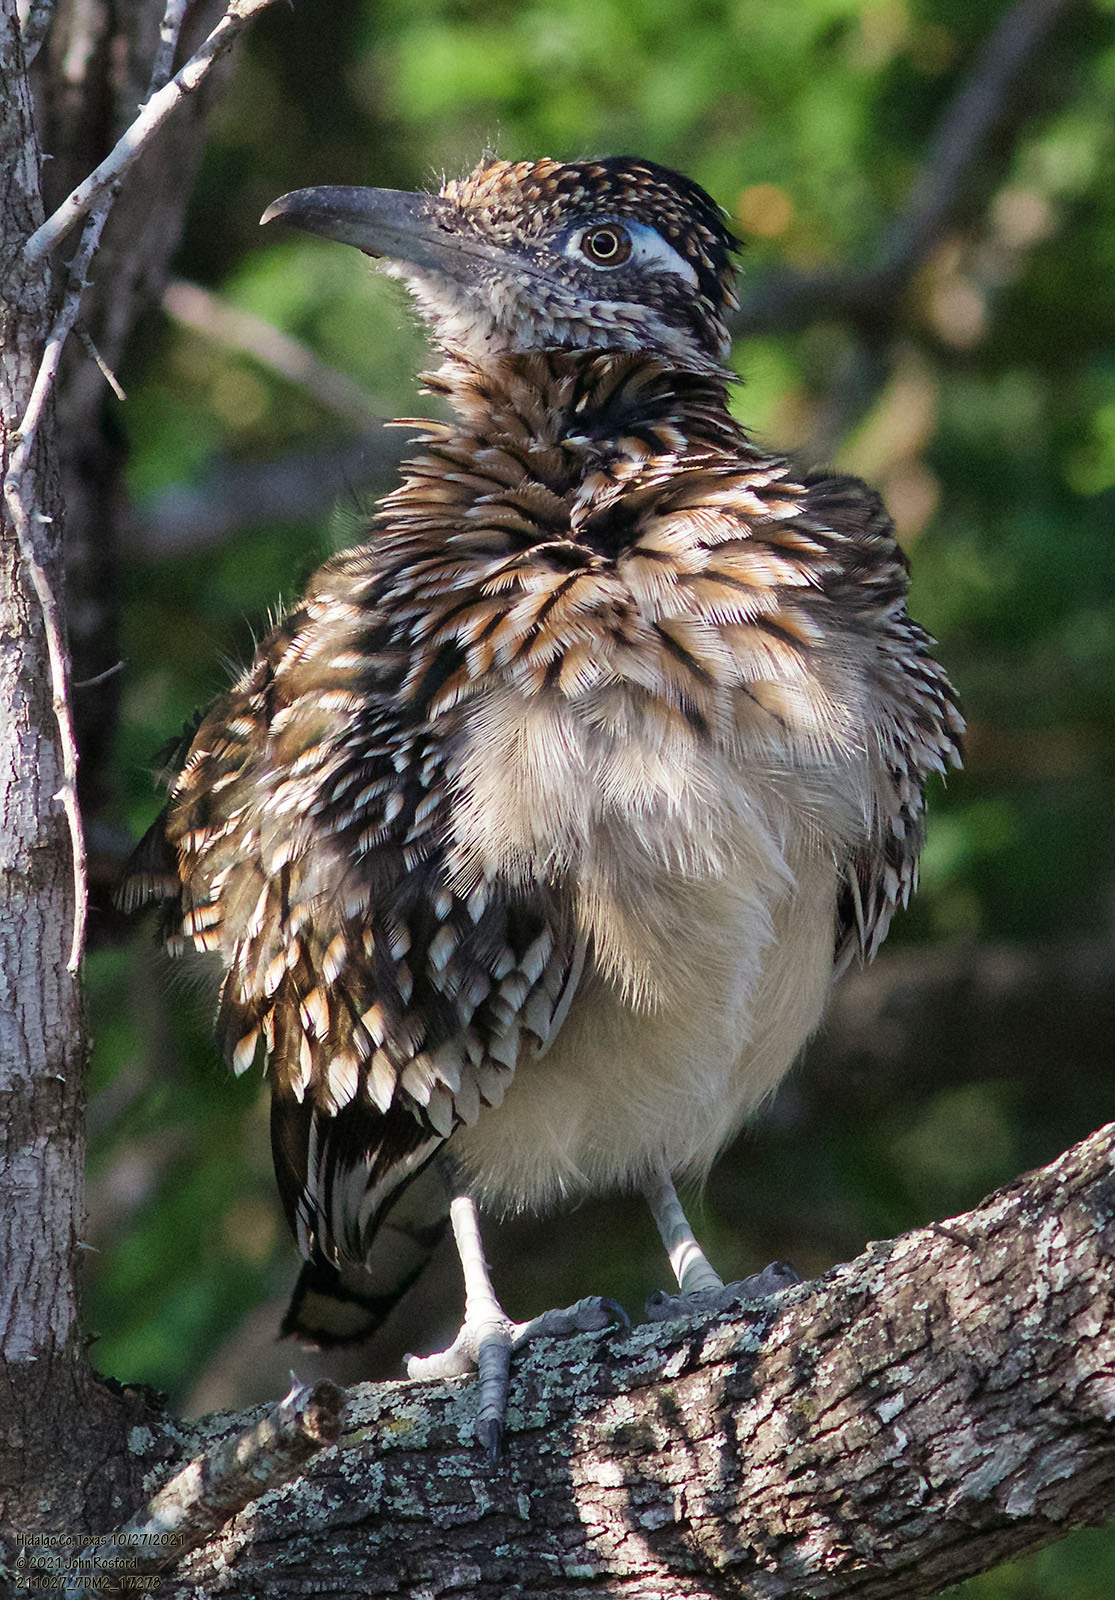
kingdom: Animalia
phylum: Chordata
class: Aves
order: Cuculiformes
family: Cuculidae
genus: Geococcyx
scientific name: Geococcyx californianus
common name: Greater roadrunner
